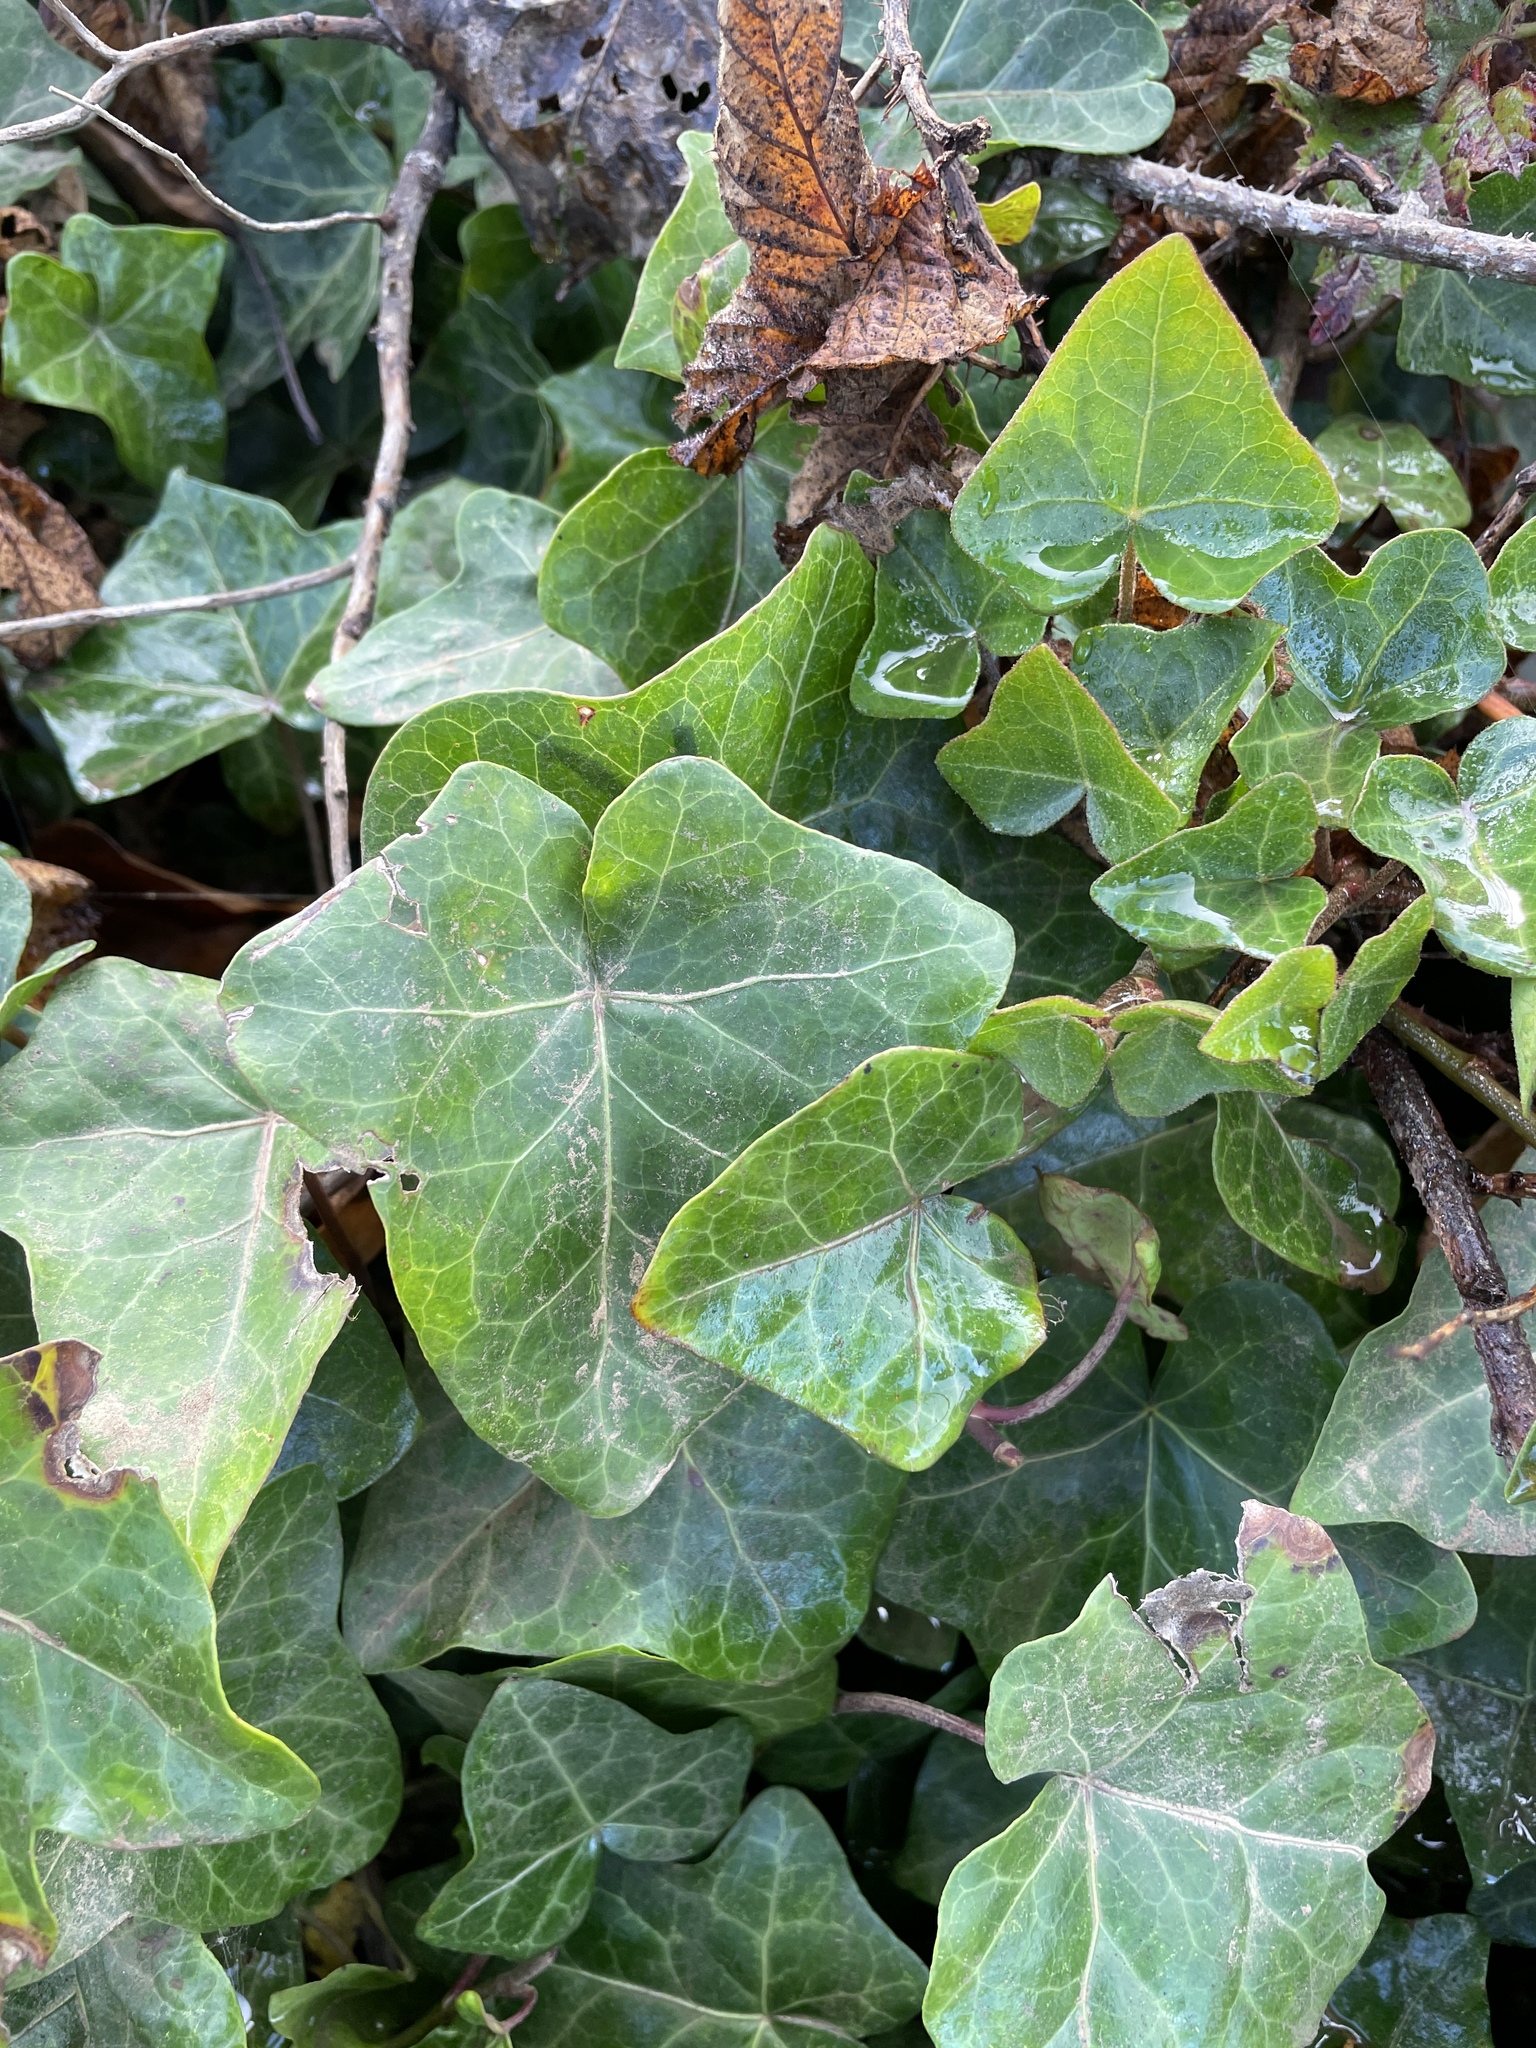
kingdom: Plantae
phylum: Tracheophyta
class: Magnoliopsida
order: Apiales
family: Araliaceae
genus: Hedera
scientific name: Hedera helix
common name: Ivy
